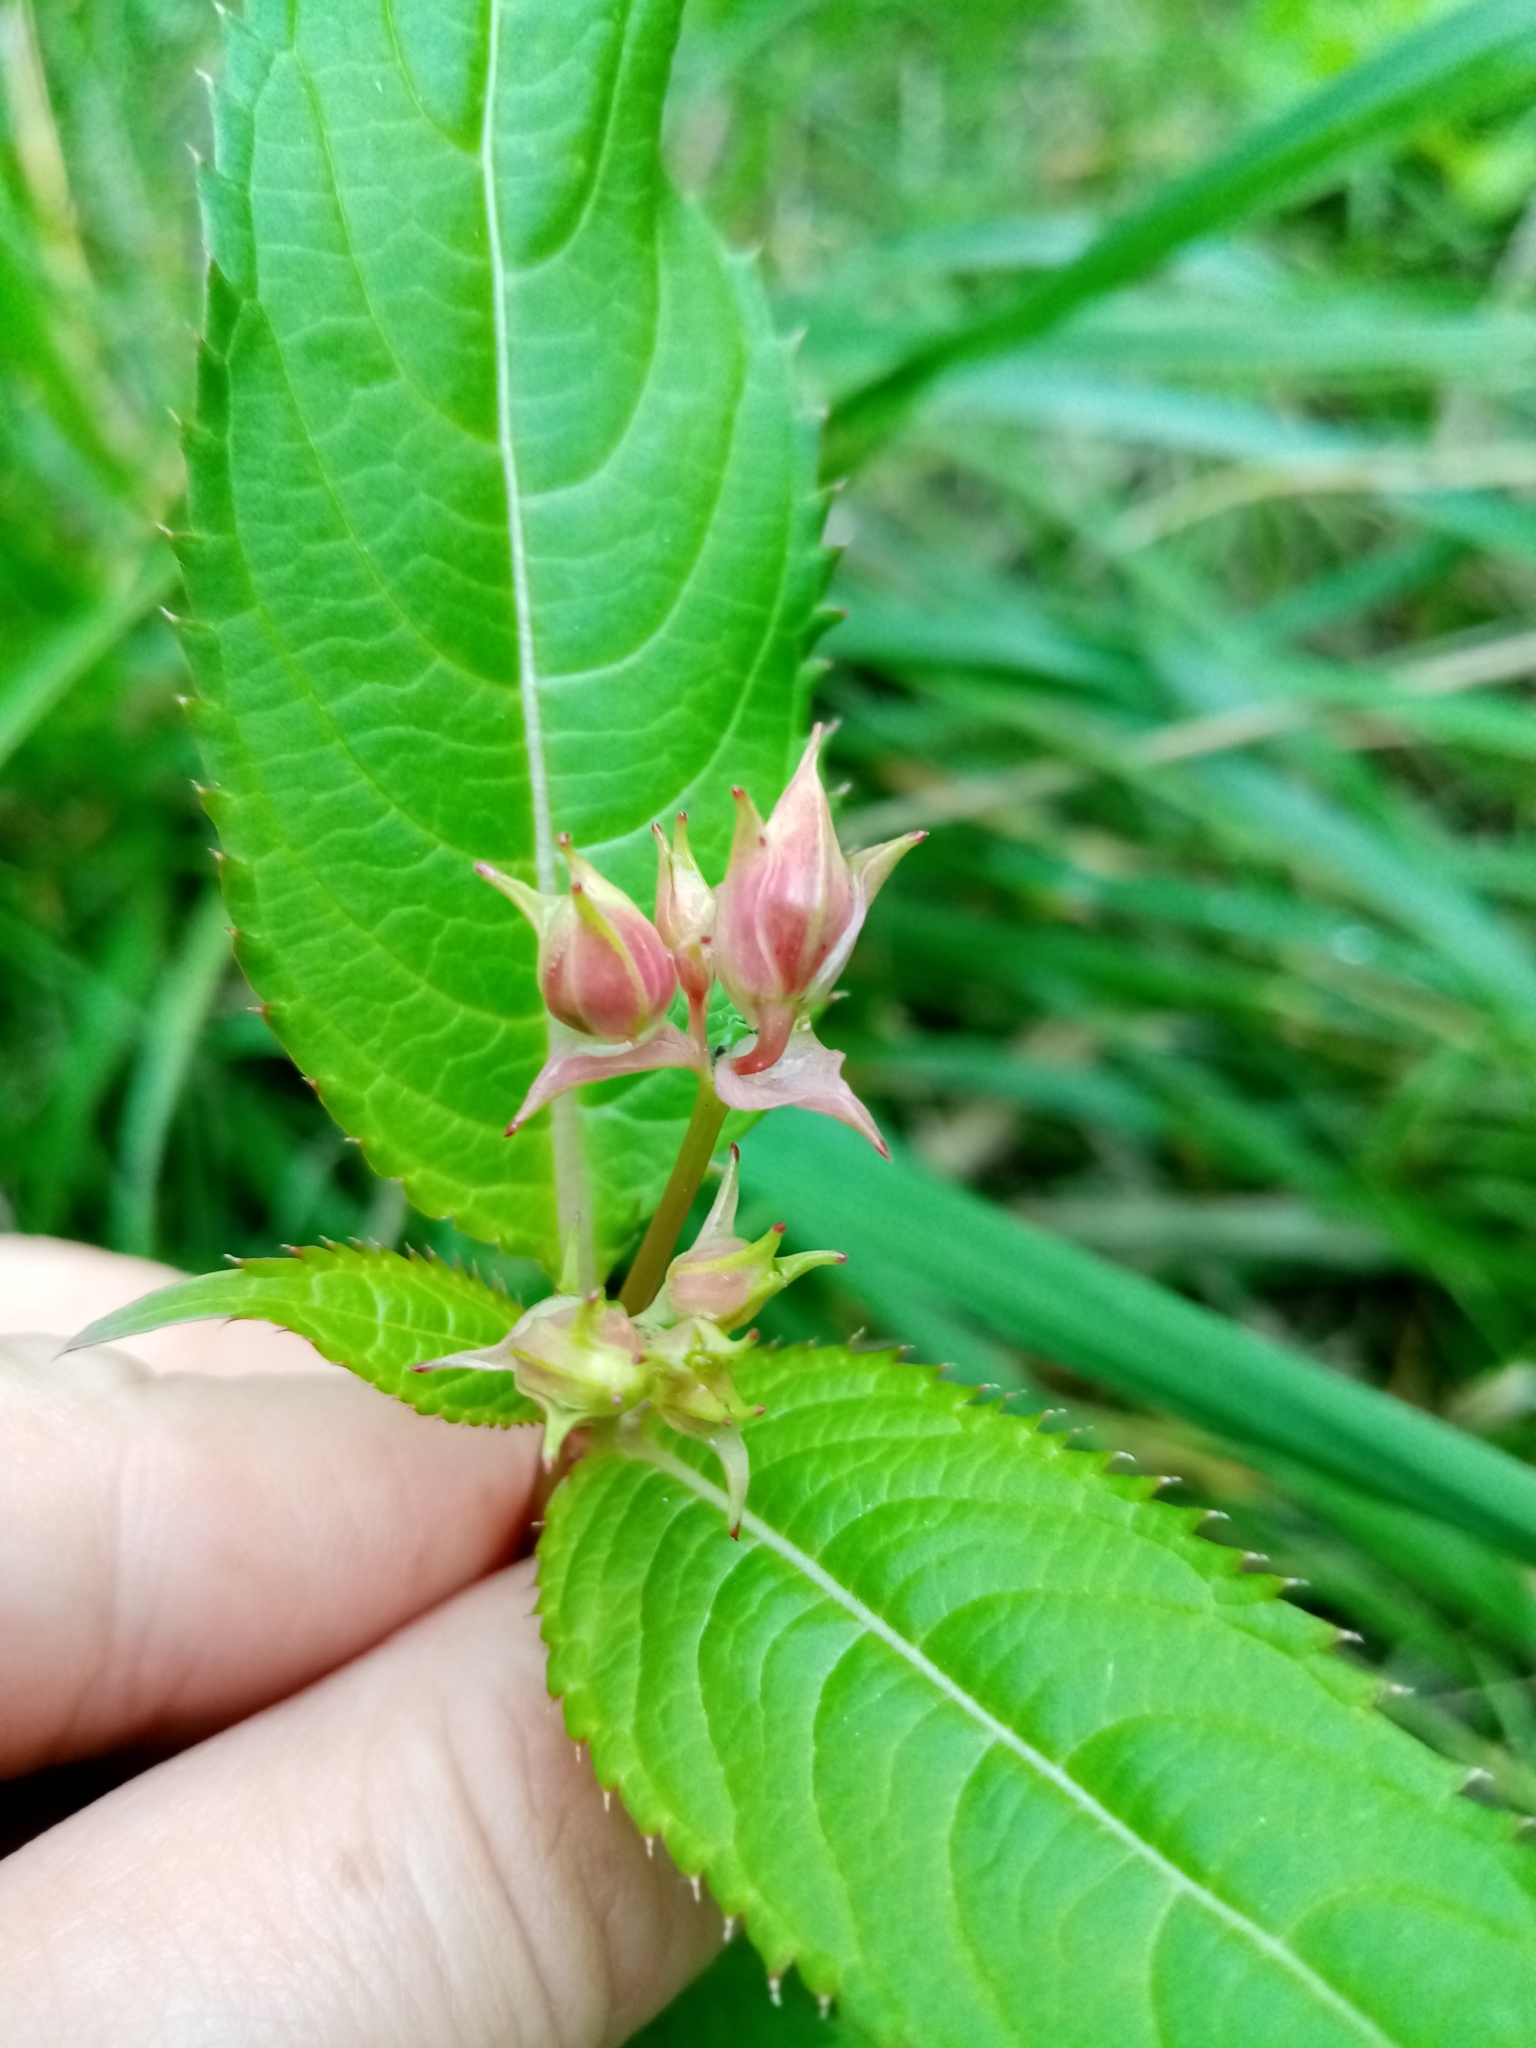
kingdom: Plantae
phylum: Tracheophyta
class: Magnoliopsida
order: Ericales
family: Balsaminaceae
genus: Impatiens
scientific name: Impatiens glandulifera
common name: Himalayan balsam
